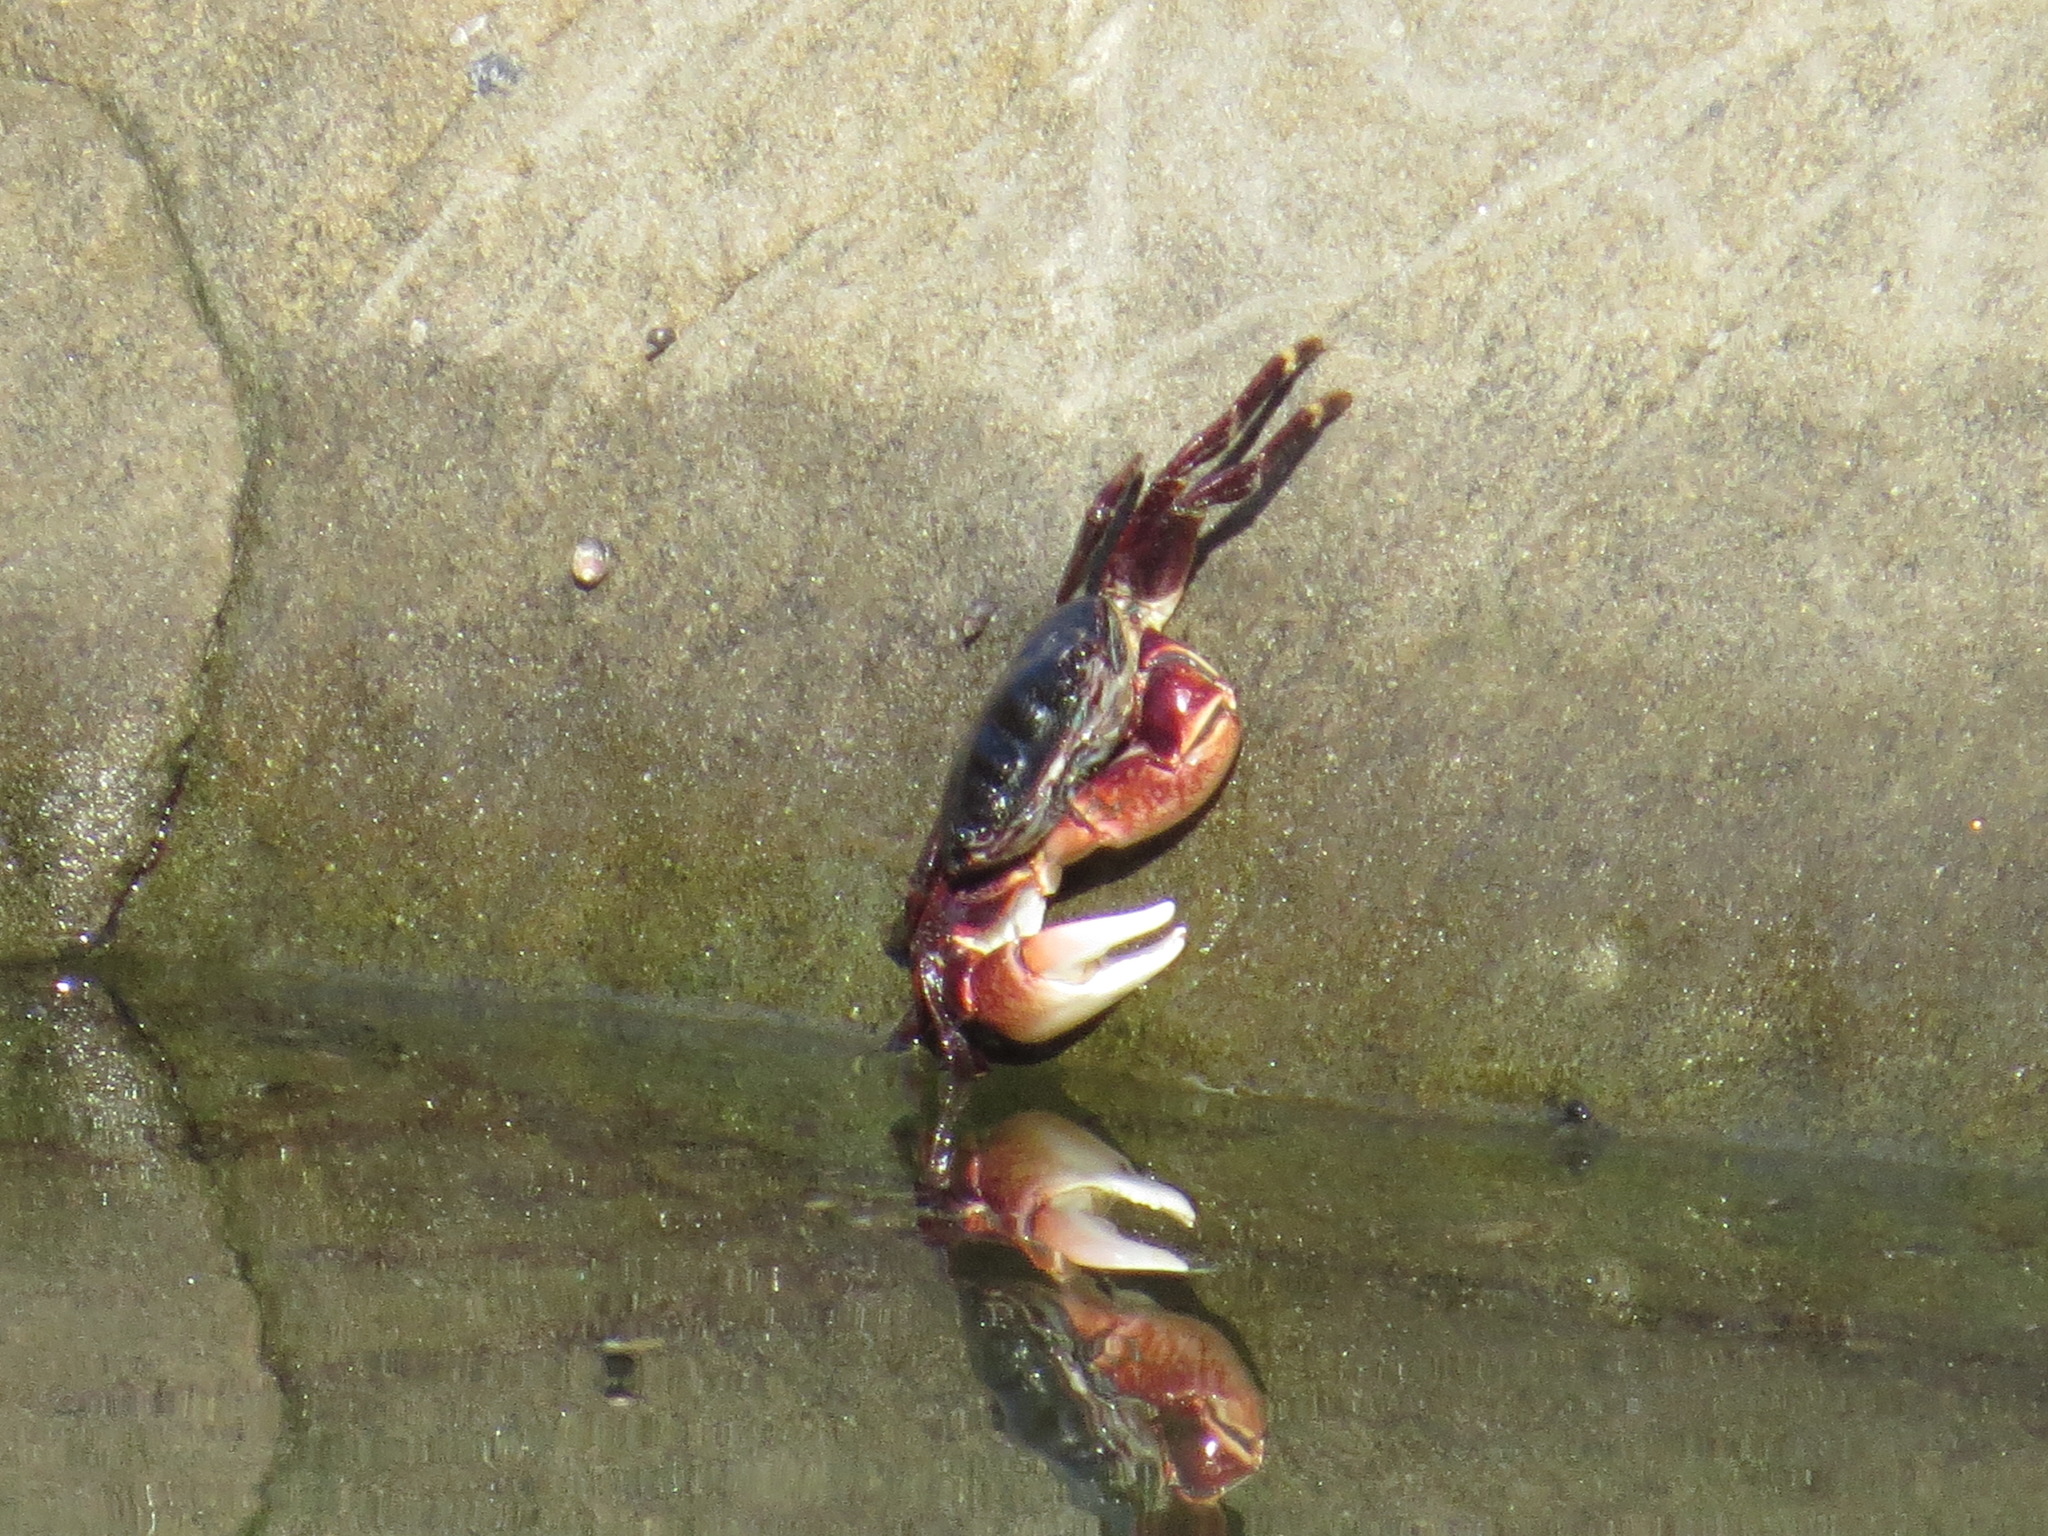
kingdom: Animalia
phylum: Arthropoda
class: Malacostraca
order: Decapoda
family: Grapsidae
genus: Pachygrapsus
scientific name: Pachygrapsus crassipes
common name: Striped shore crab
